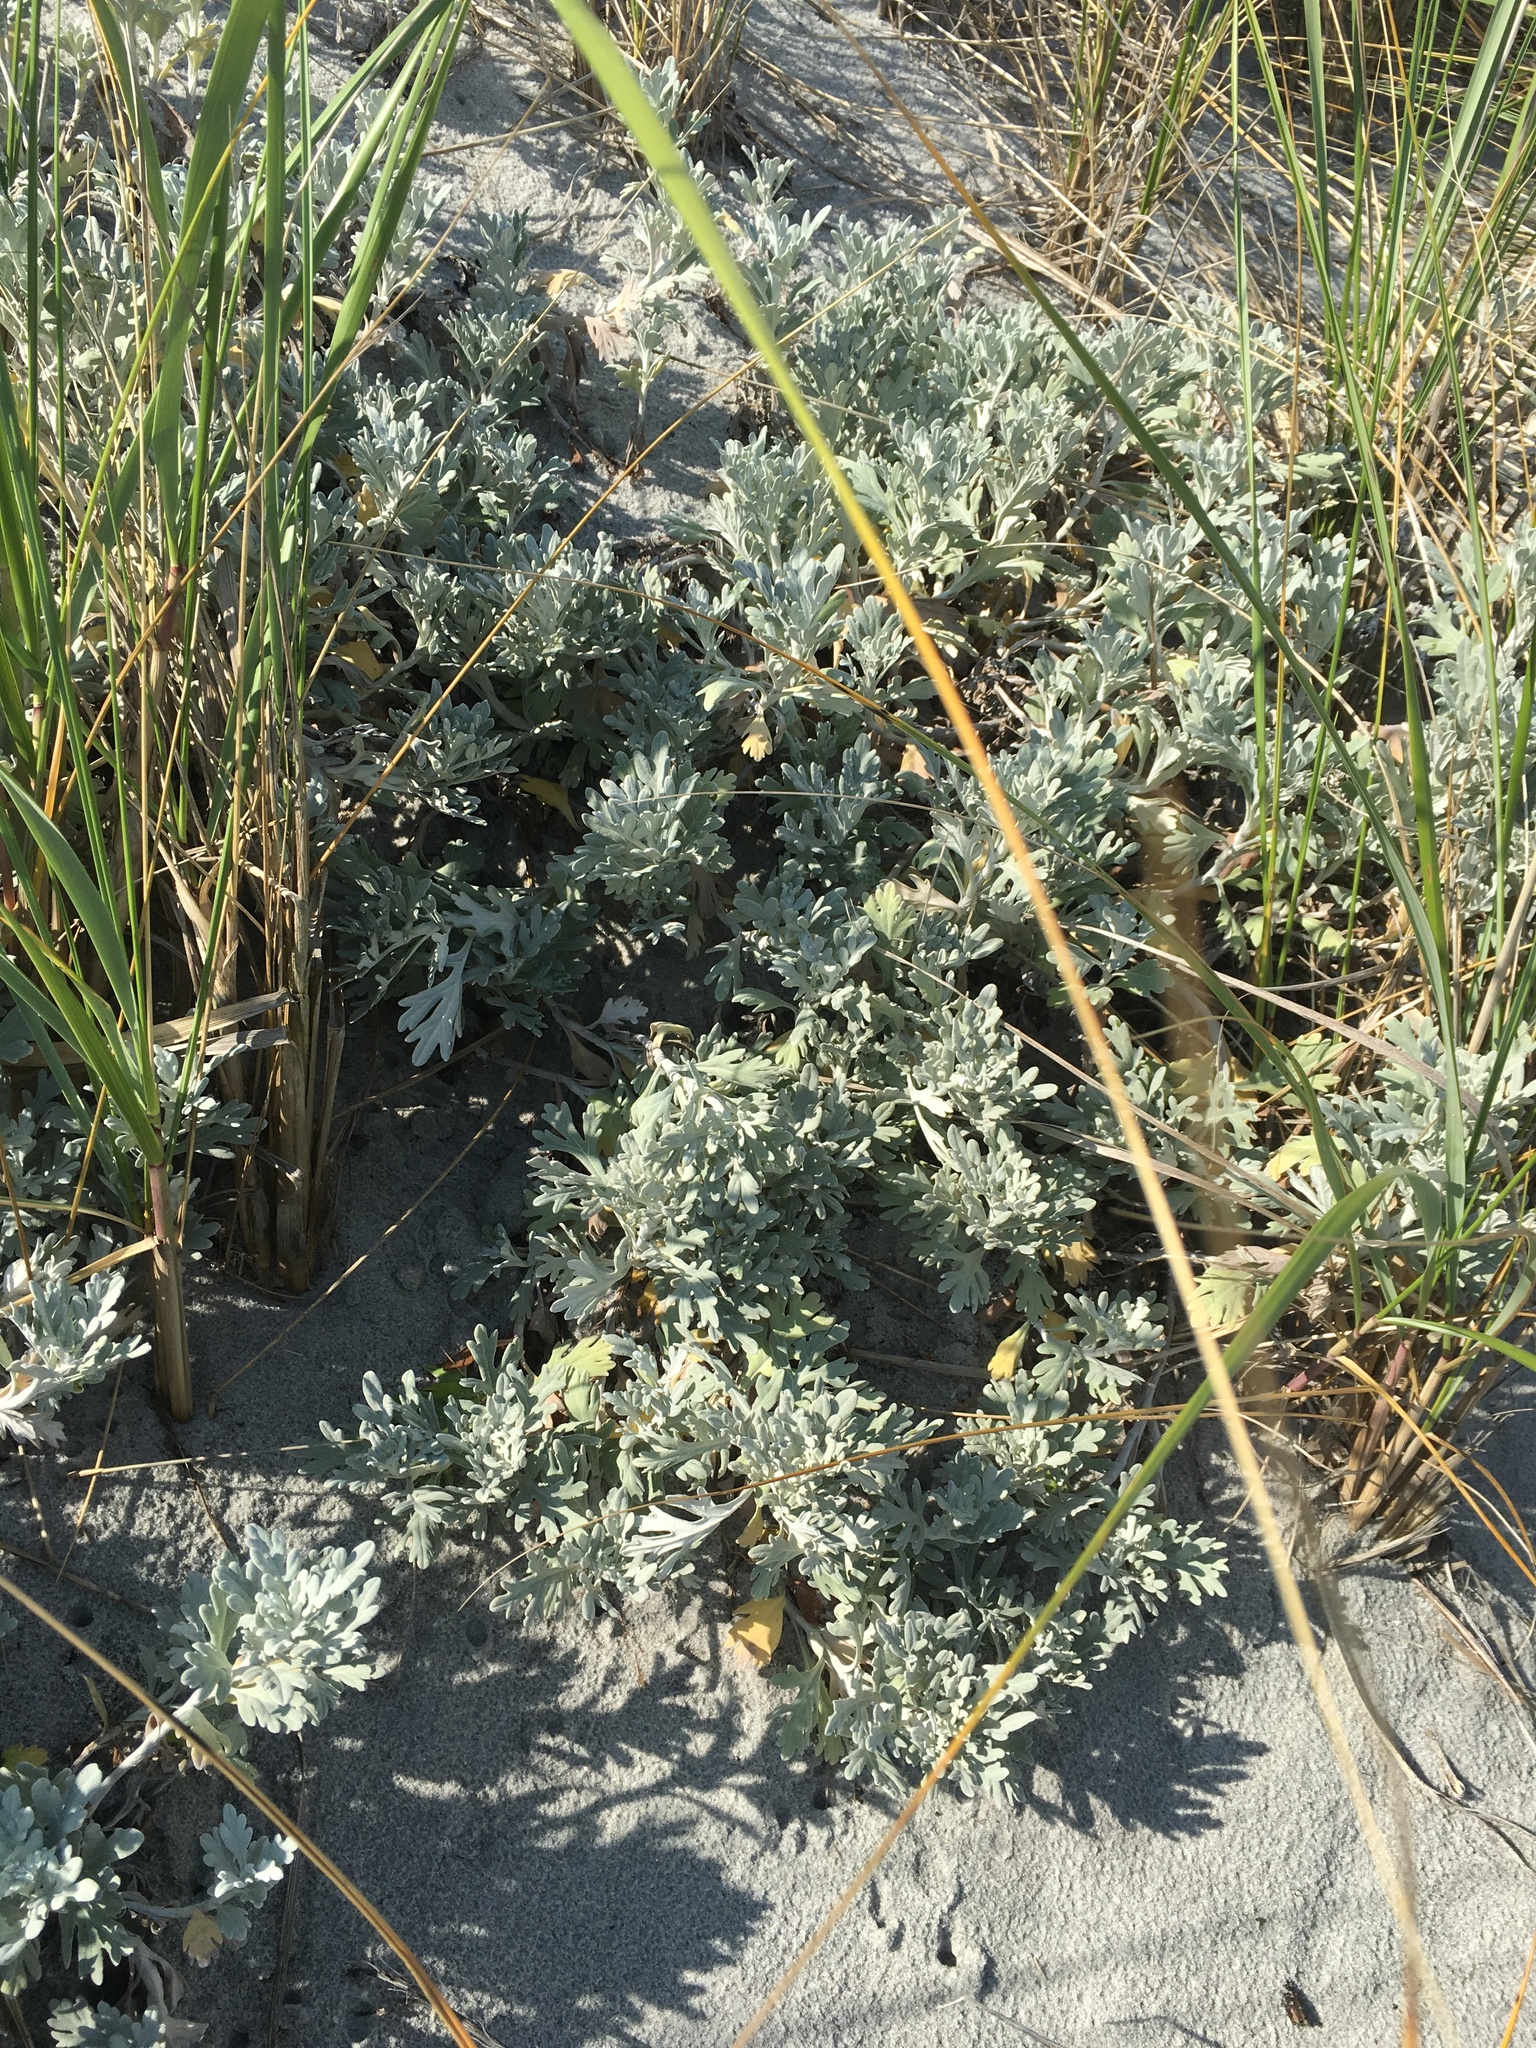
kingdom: Plantae
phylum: Tracheophyta
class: Magnoliopsida
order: Asterales
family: Asteraceae
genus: Artemisia
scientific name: Artemisia stelleriana
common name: Beach wormwood
